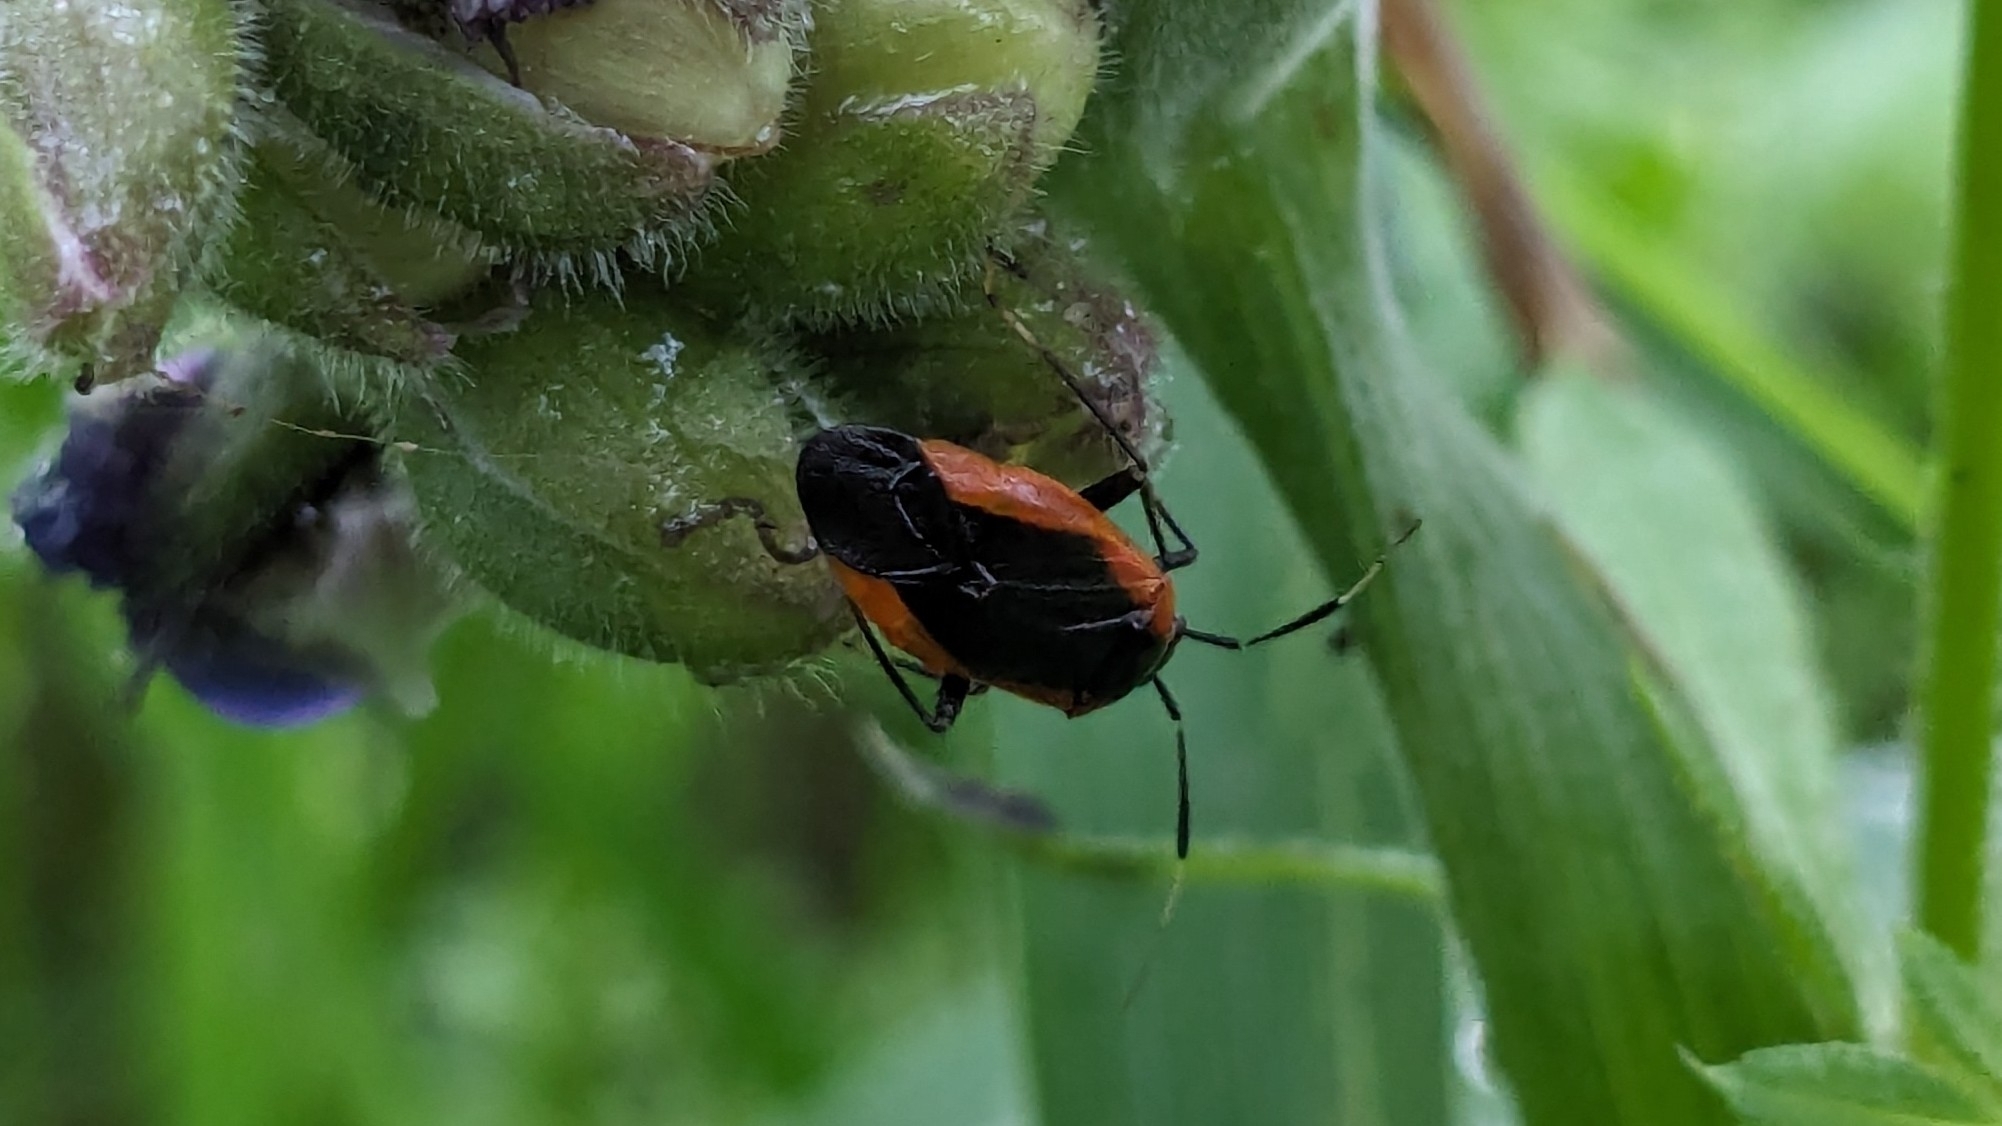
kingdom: Animalia
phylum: Arthropoda
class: Insecta
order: Hemiptera
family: Miridae
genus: Metriorrhynchomiris
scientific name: Metriorrhynchomiris dislocatus
